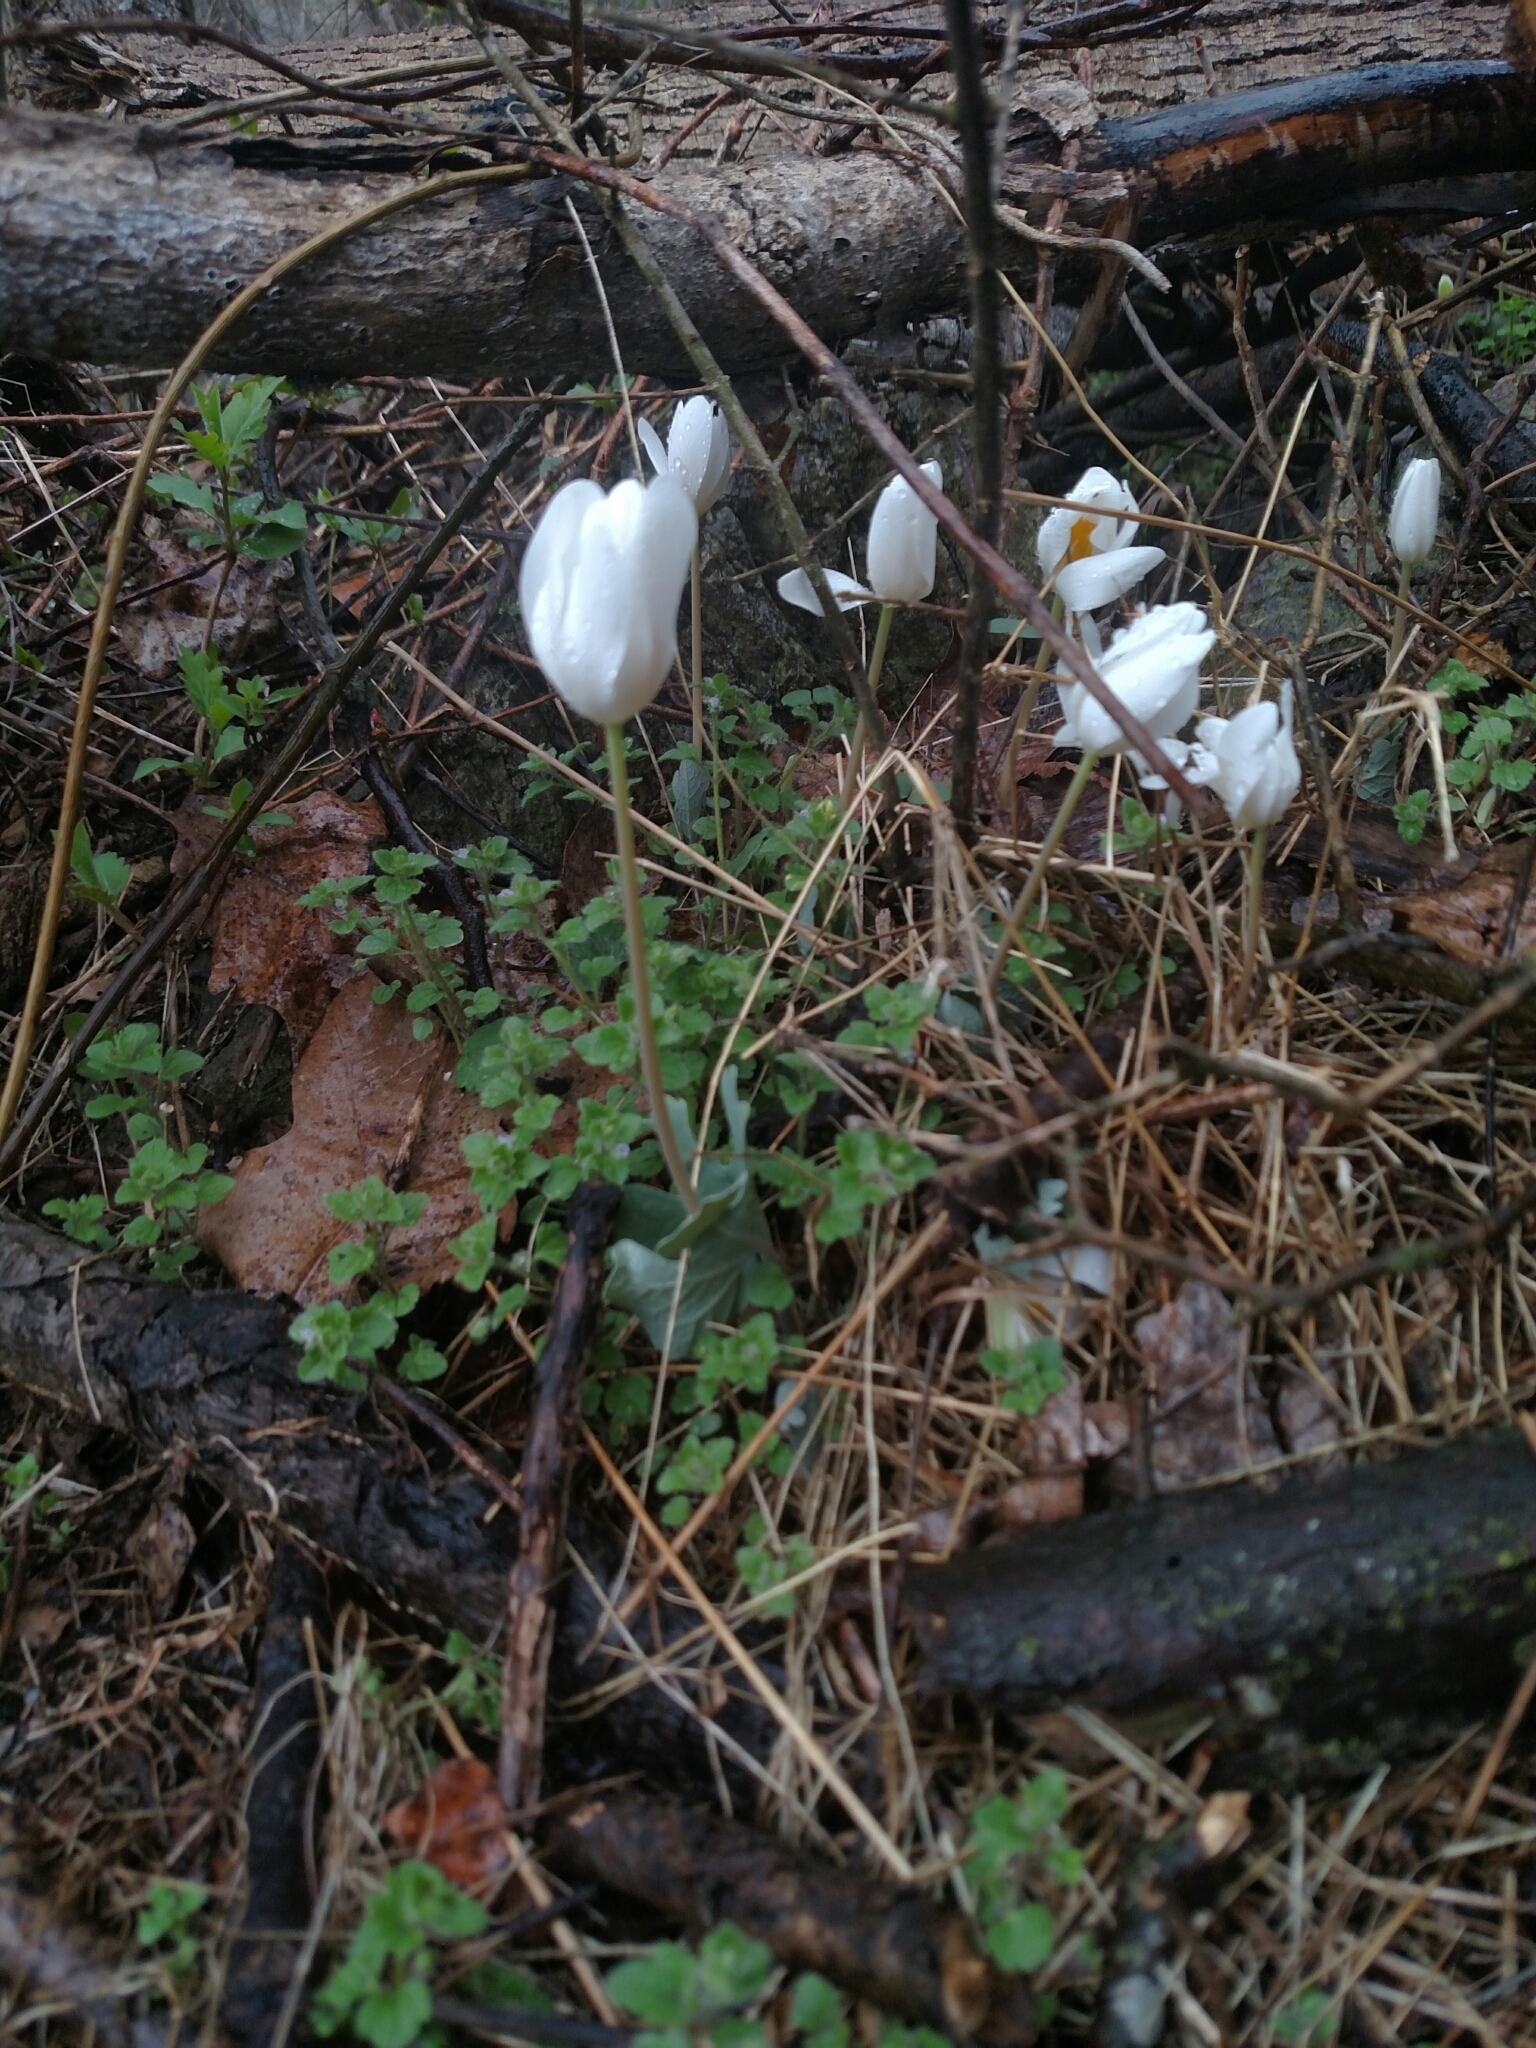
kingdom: Plantae
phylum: Tracheophyta
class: Magnoliopsida
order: Ranunculales
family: Papaveraceae
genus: Sanguinaria
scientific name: Sanguinaria canadensis
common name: Bloodroot
